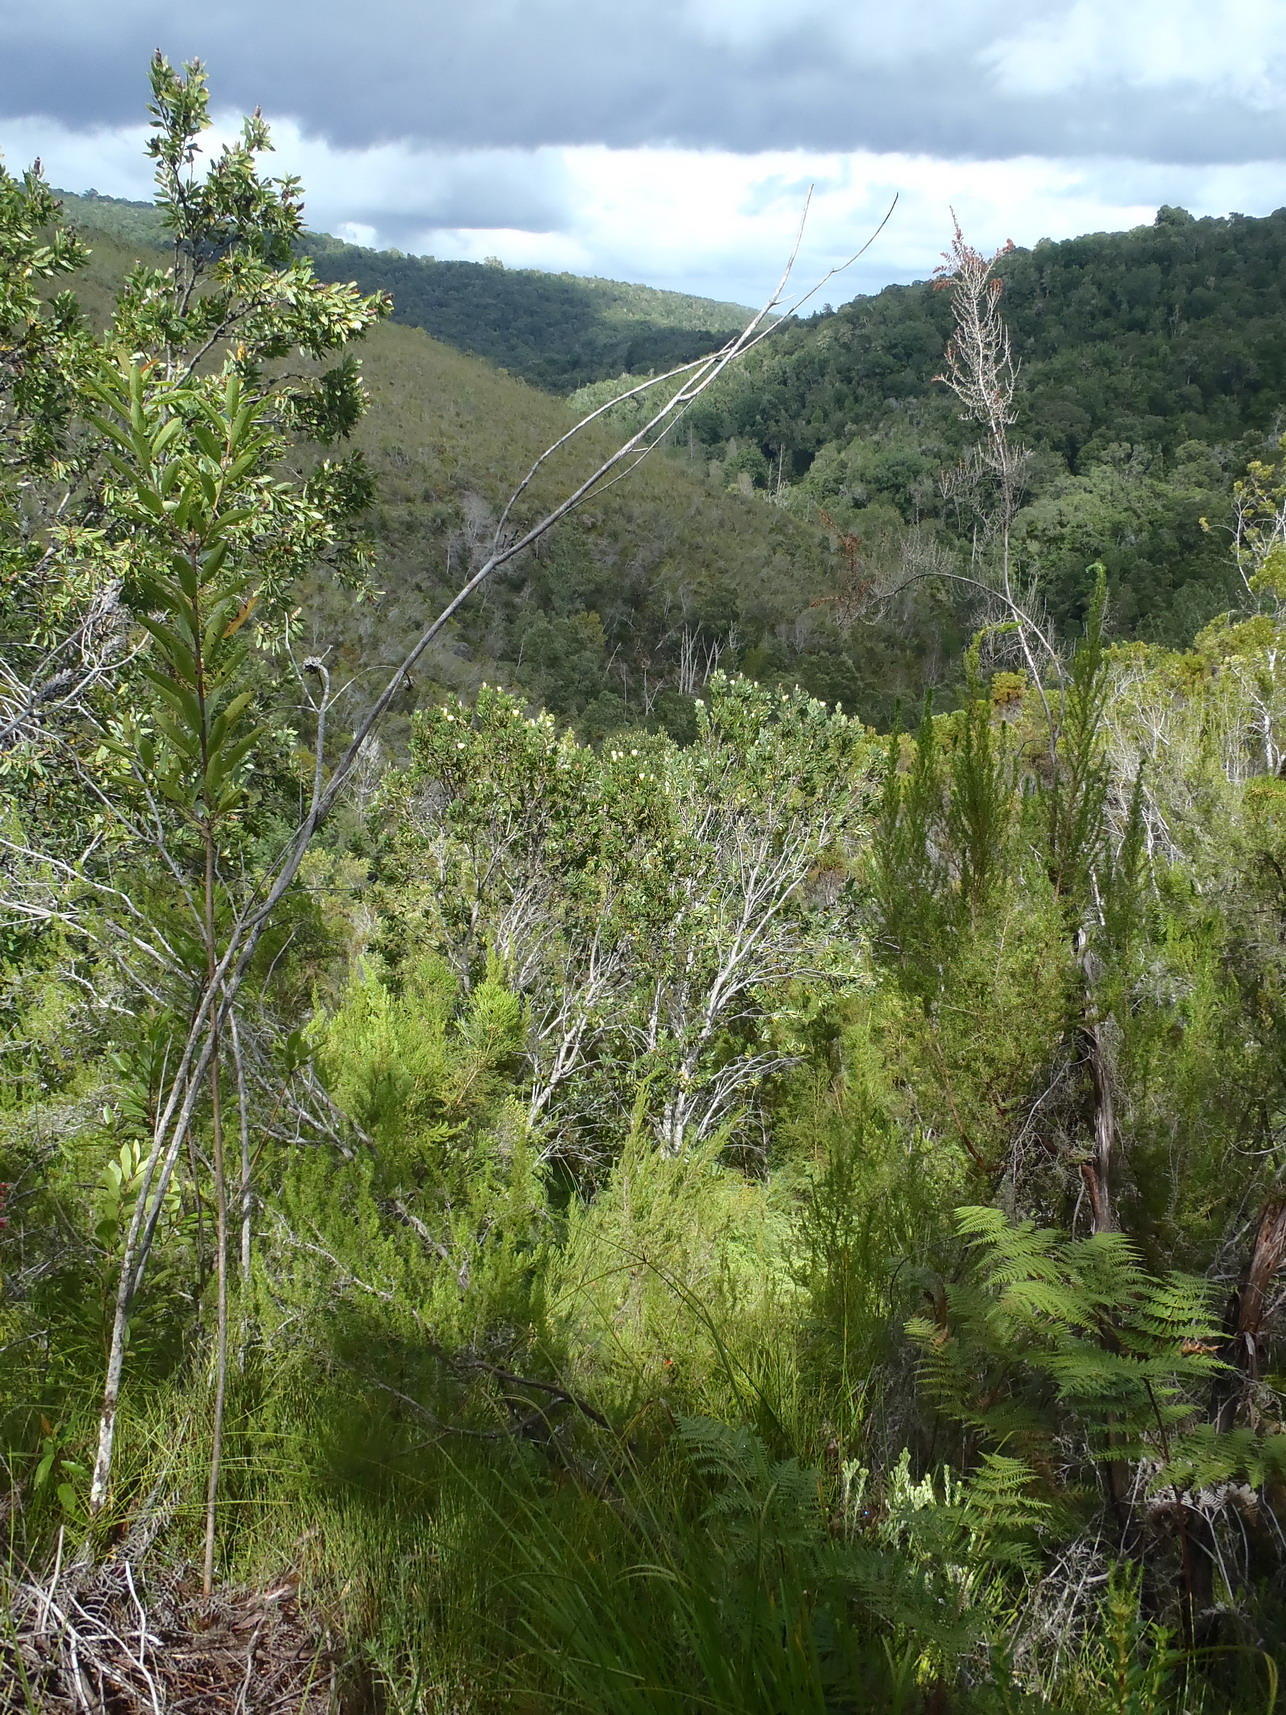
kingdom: Plantae
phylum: Tracheophyta
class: Magnoliopsida
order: Proteales
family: Proteaceae
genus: Protea
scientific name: Protea mundii
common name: Forest sugarbush
